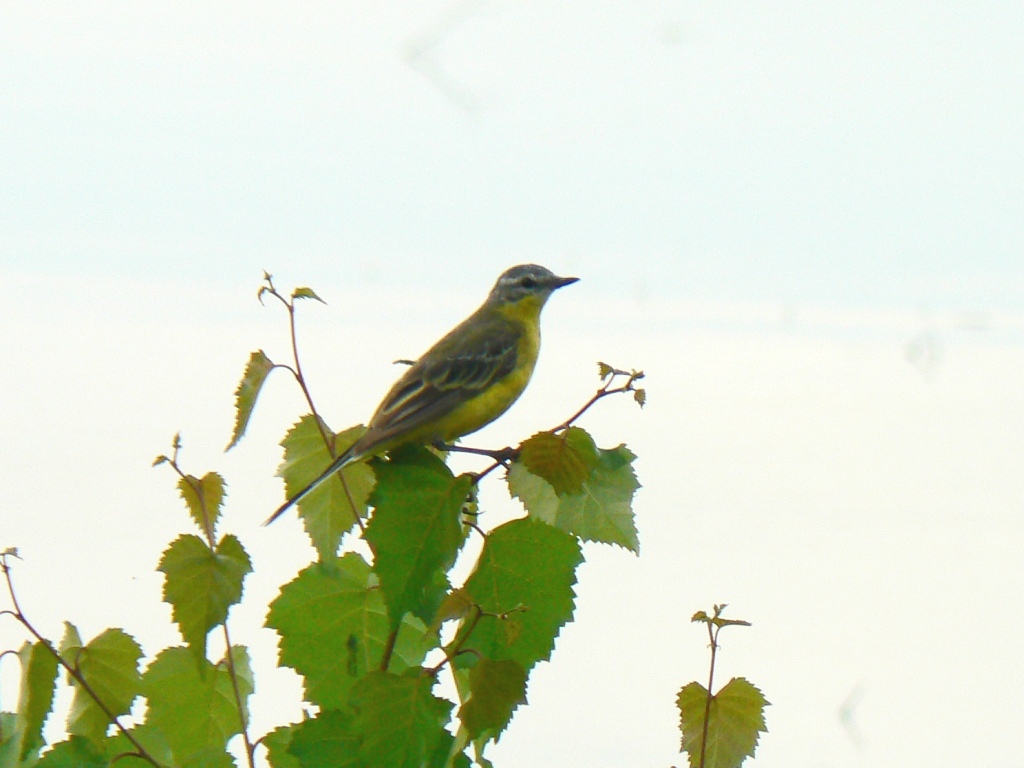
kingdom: Animalia
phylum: Chordata
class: Aves
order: Passeriformes
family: Motacillidae
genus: Motacilla
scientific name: Motacilla flava
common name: Western yellow wagtail
